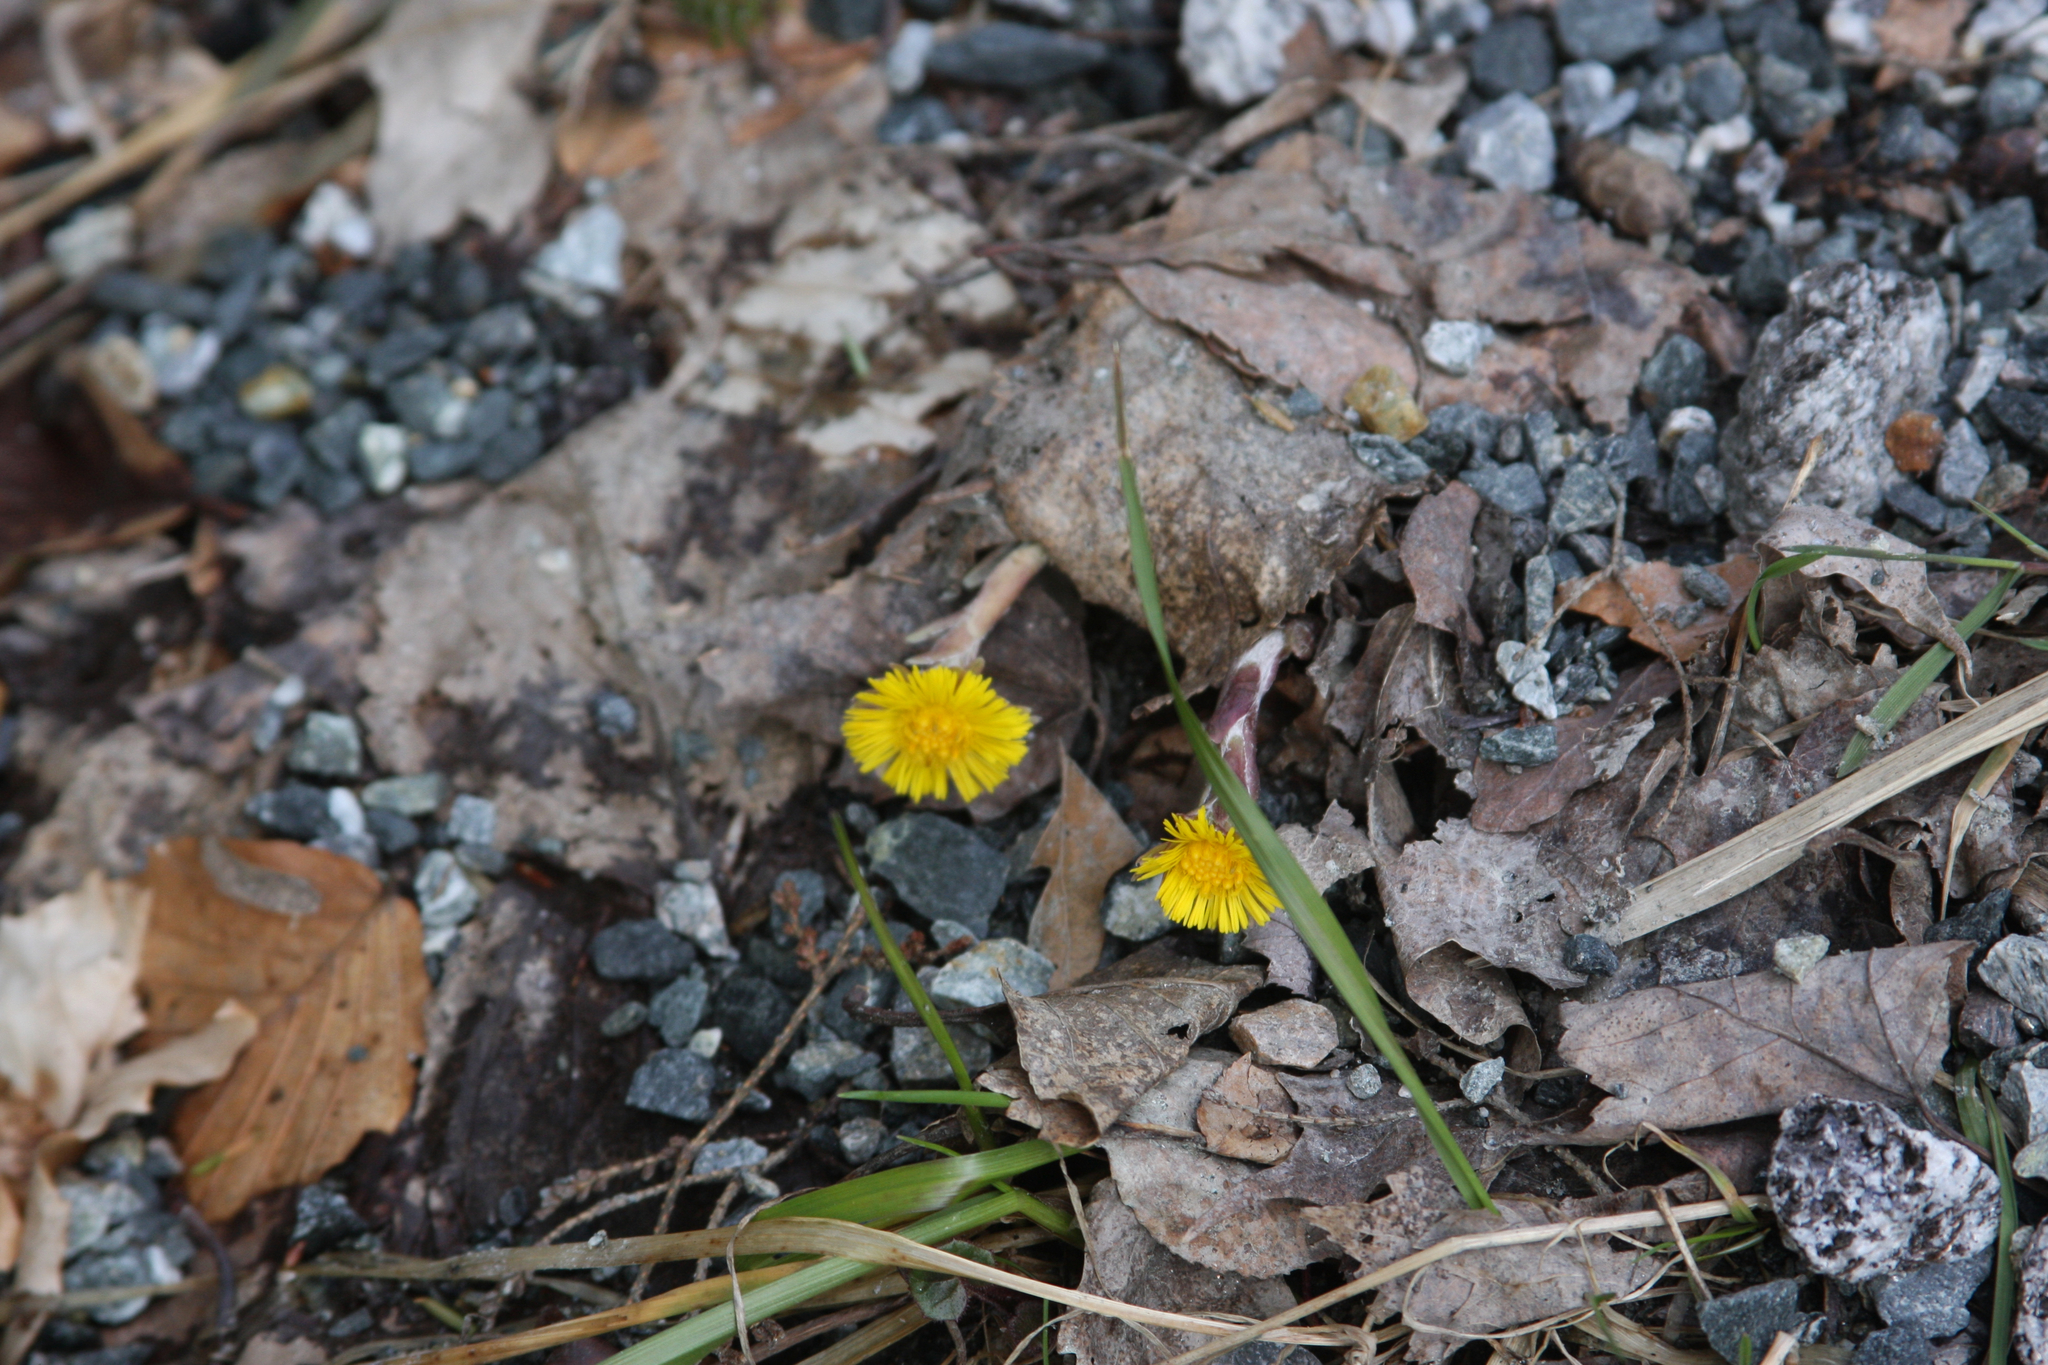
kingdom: Plantae
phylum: Tracheophyta
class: Magnoliopsida
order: Asterales
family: Asteraceae
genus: Tussilago
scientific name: Tussilago farfara
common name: Coltsfoot
